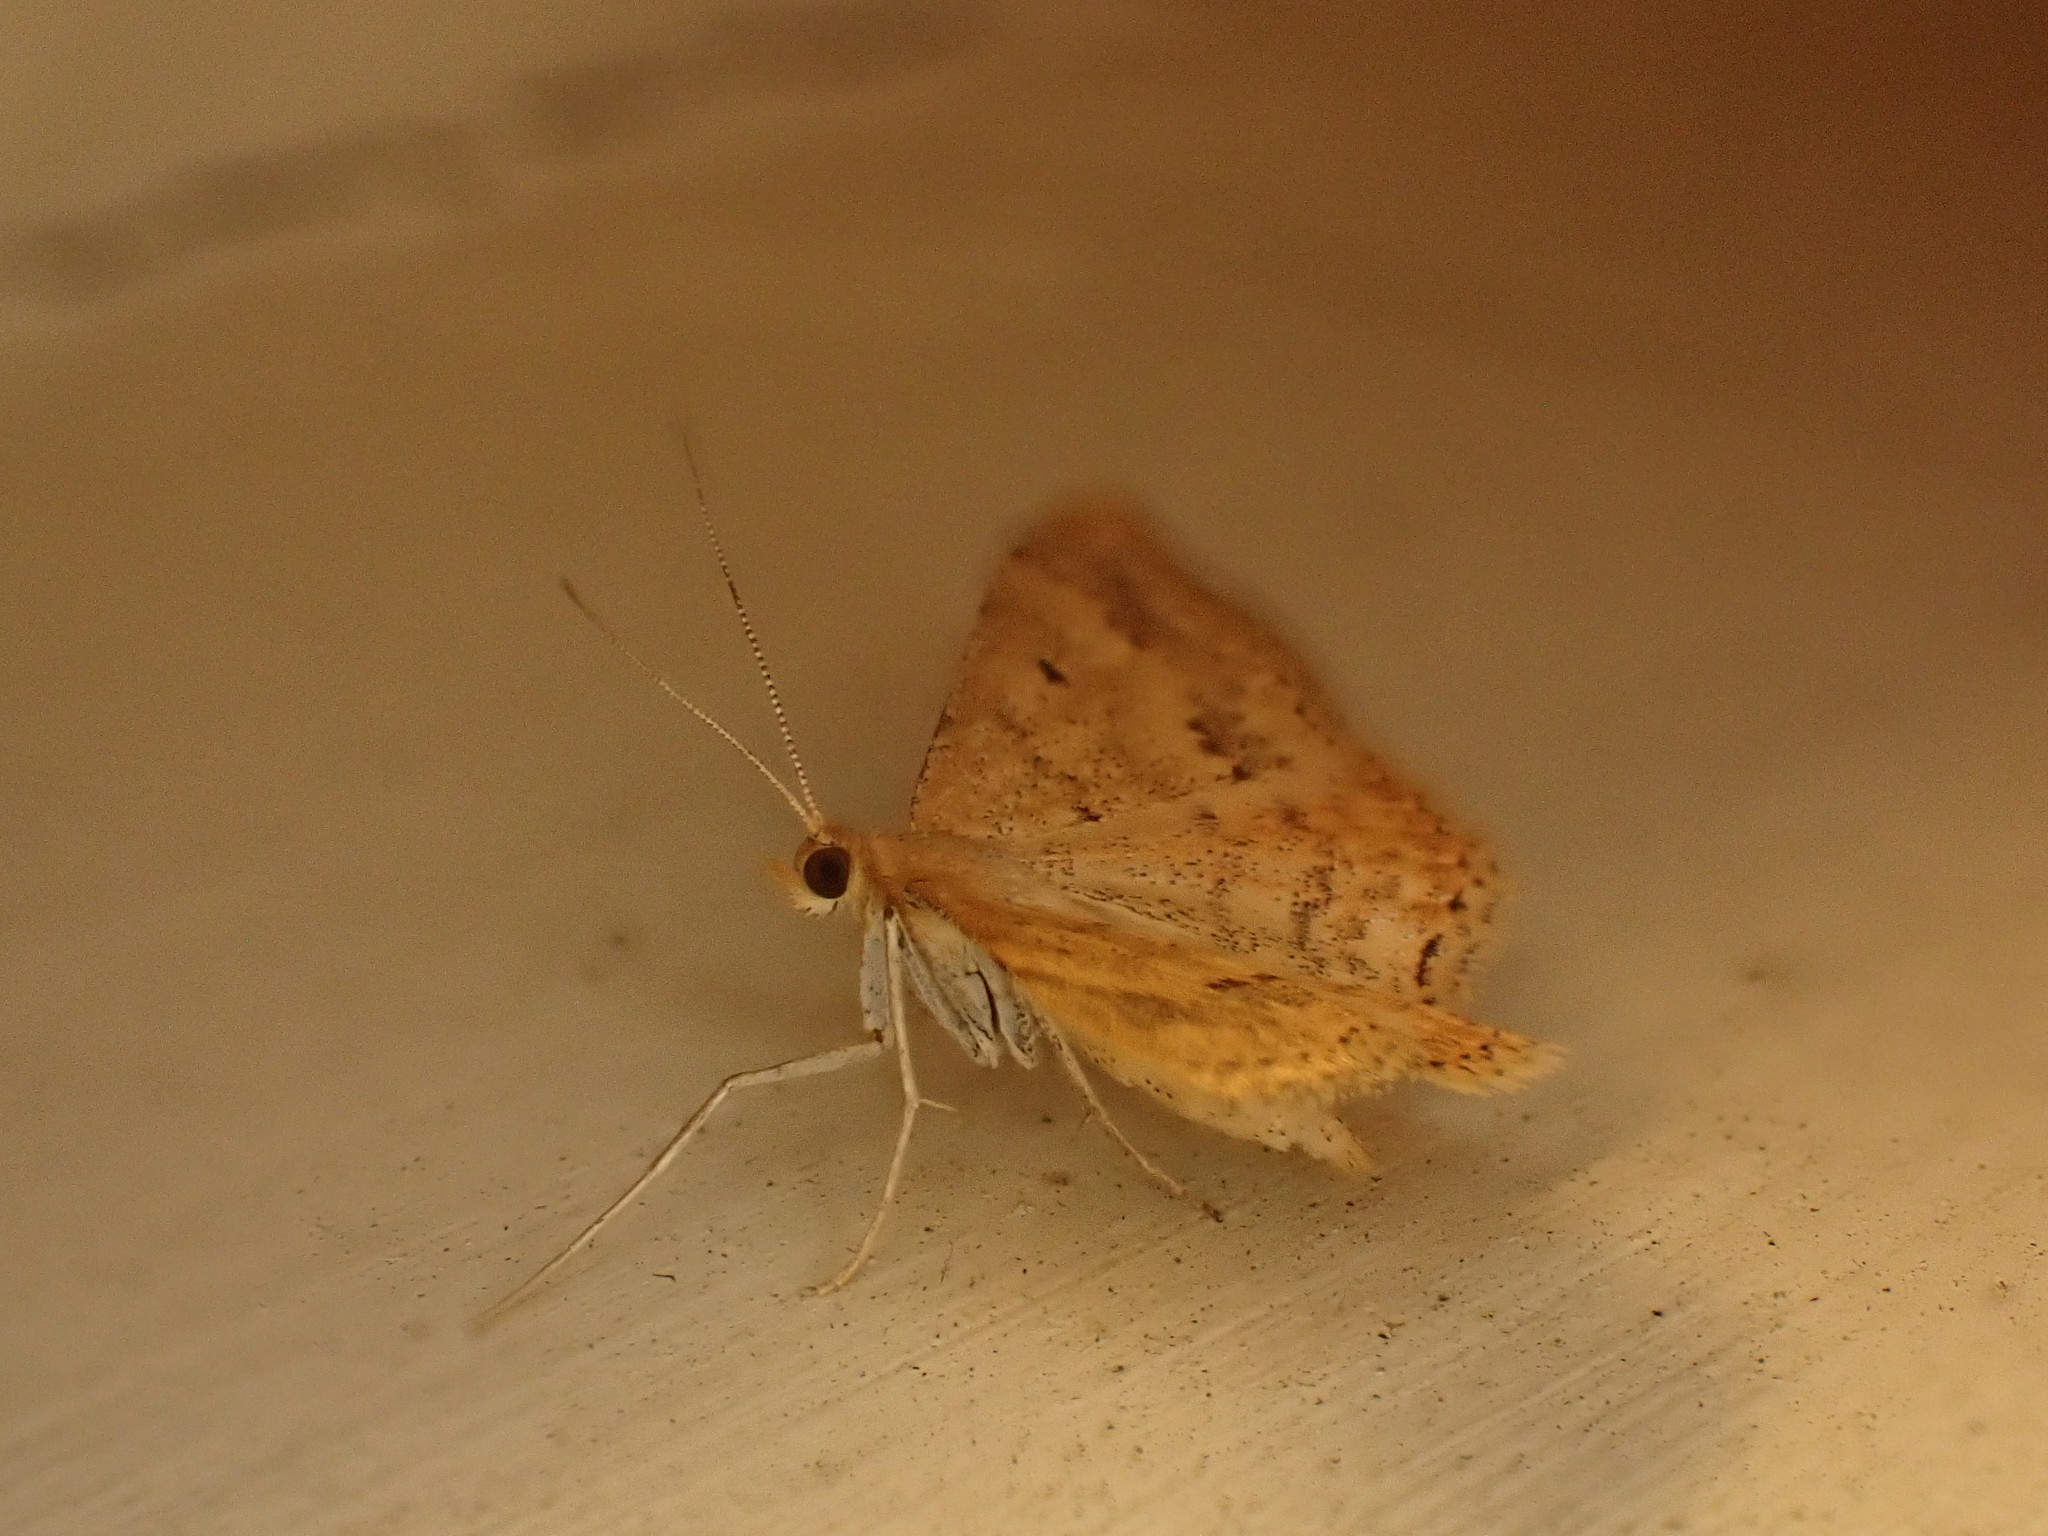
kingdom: Animalia
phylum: Arthropoda
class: Insecta
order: Lepidoptera
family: Geometridae
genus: Scopula
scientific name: Scopula rubraria
